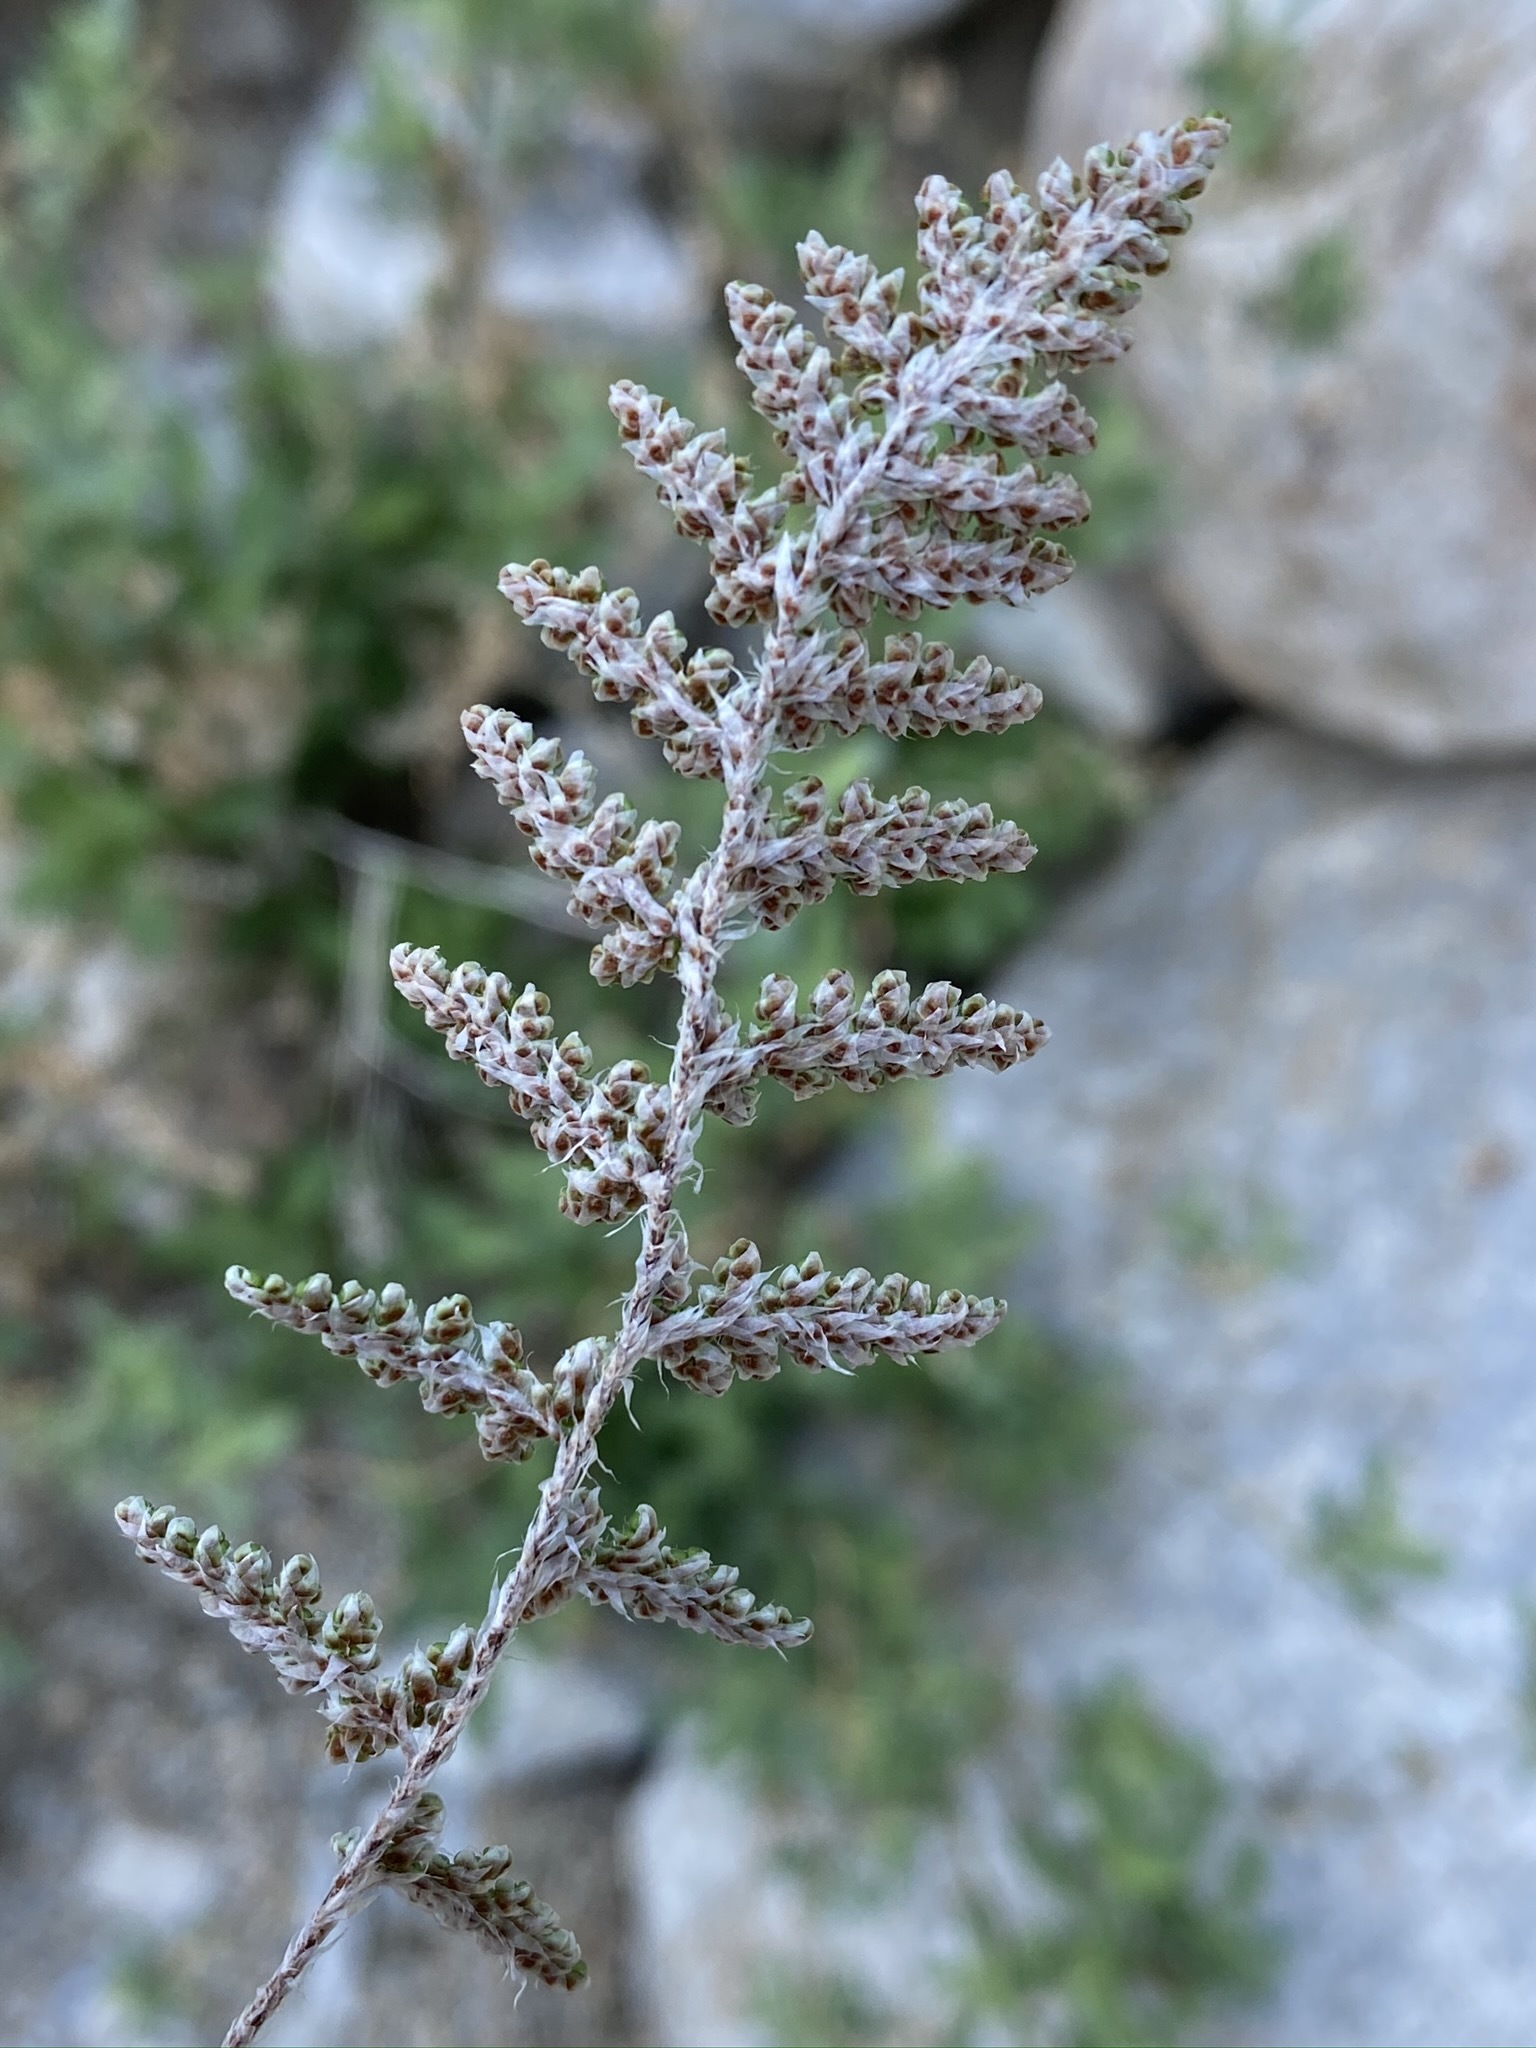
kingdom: Plantae
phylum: Tracheophyta
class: Polypodiopsida
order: Polypodiales
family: Pteridaceae
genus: Myriopteris
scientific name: Myriopteris covillei
